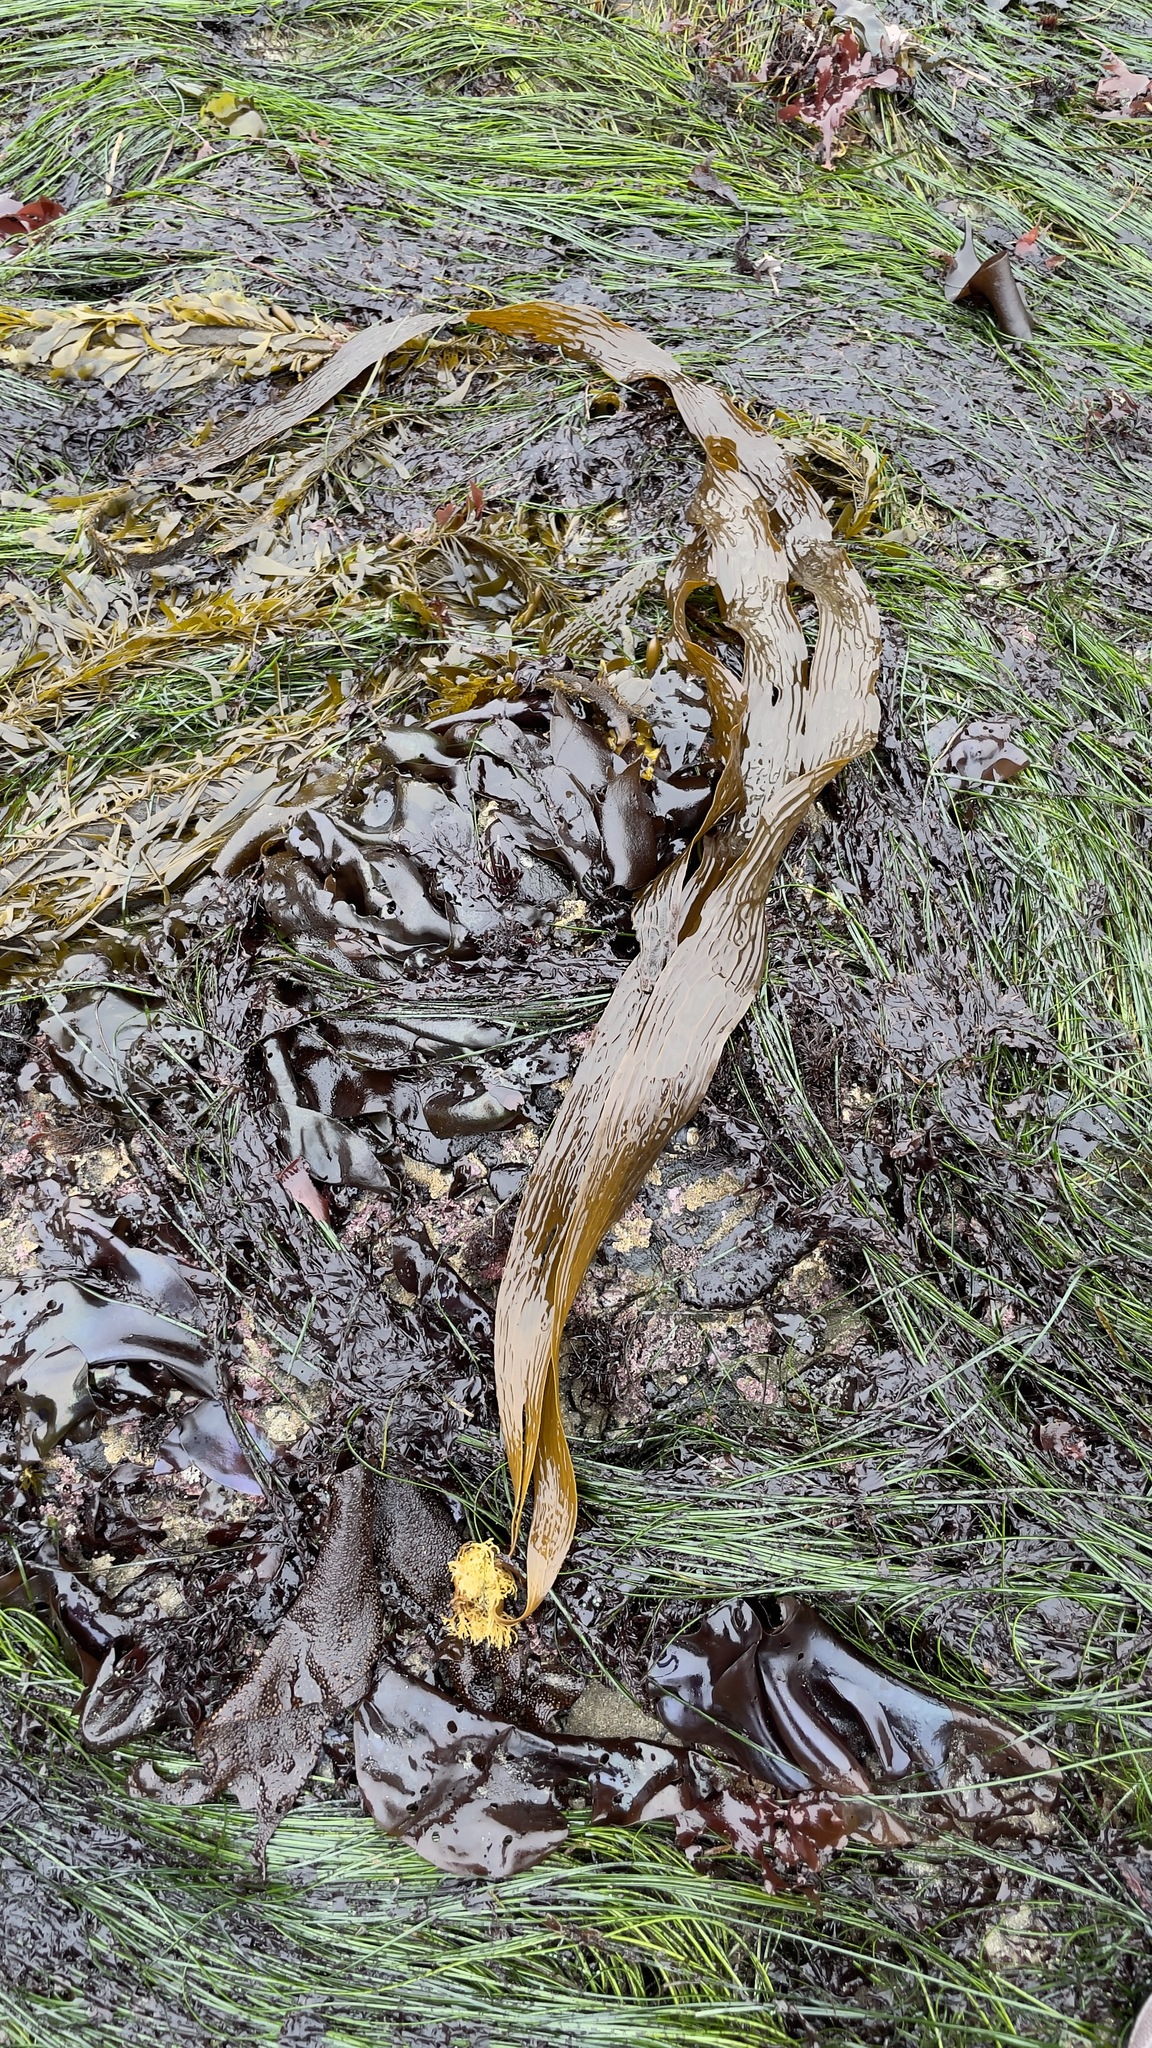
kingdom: Chromista
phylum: Ochrophyta
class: Phaeophyceae
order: Laminariales
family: Costariaceae
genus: Dictyoneurum
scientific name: Dictyoneurum californicum
